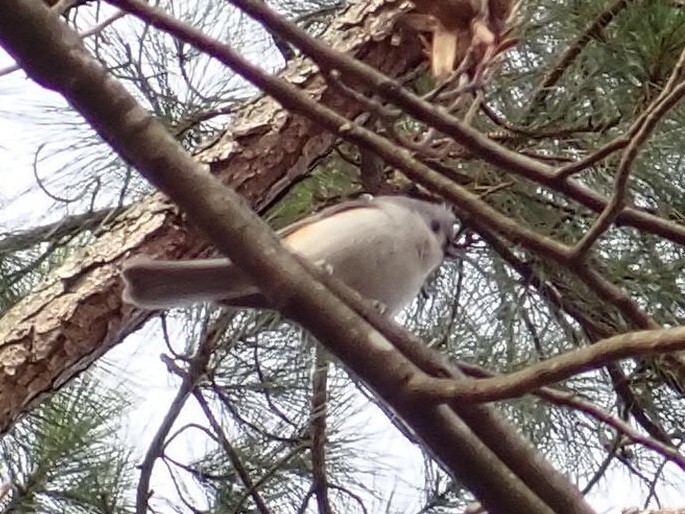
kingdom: Animalia
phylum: Chordata
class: Aves
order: Passeriformes
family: Paridae
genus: Baeolophus
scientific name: Baeolophus bicolor
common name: Tufted titmouse
